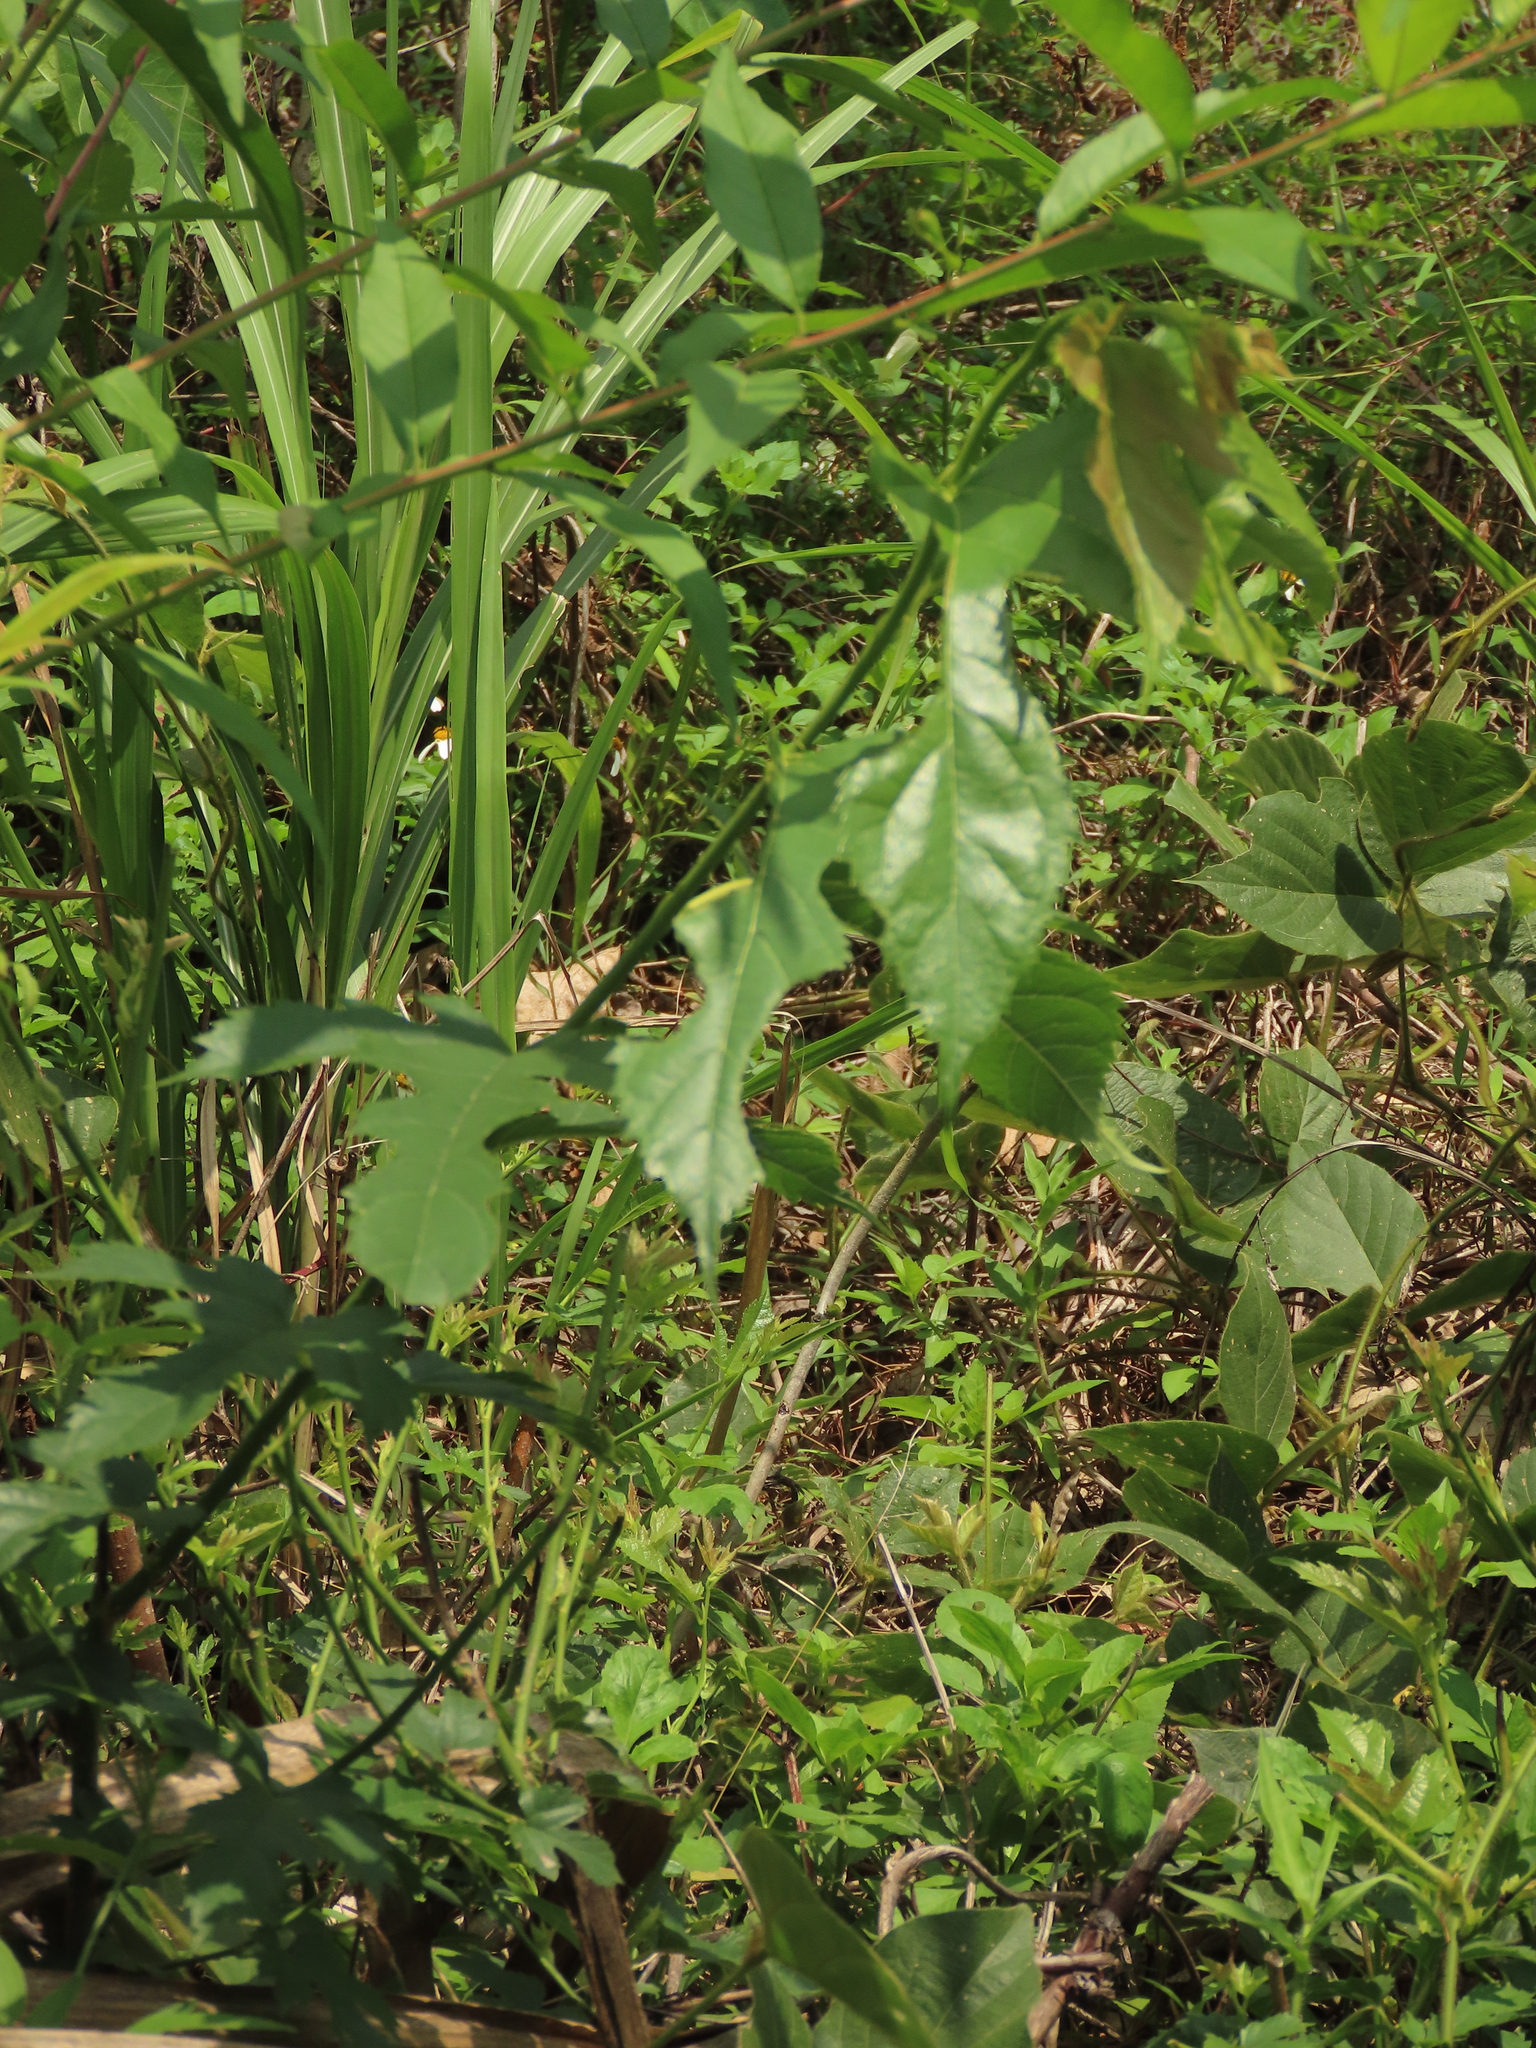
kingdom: Plantae
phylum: Tracheophyta
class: Magnoliopsida
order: Rosales
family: Moraceae
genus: Morus
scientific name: Morus indica
